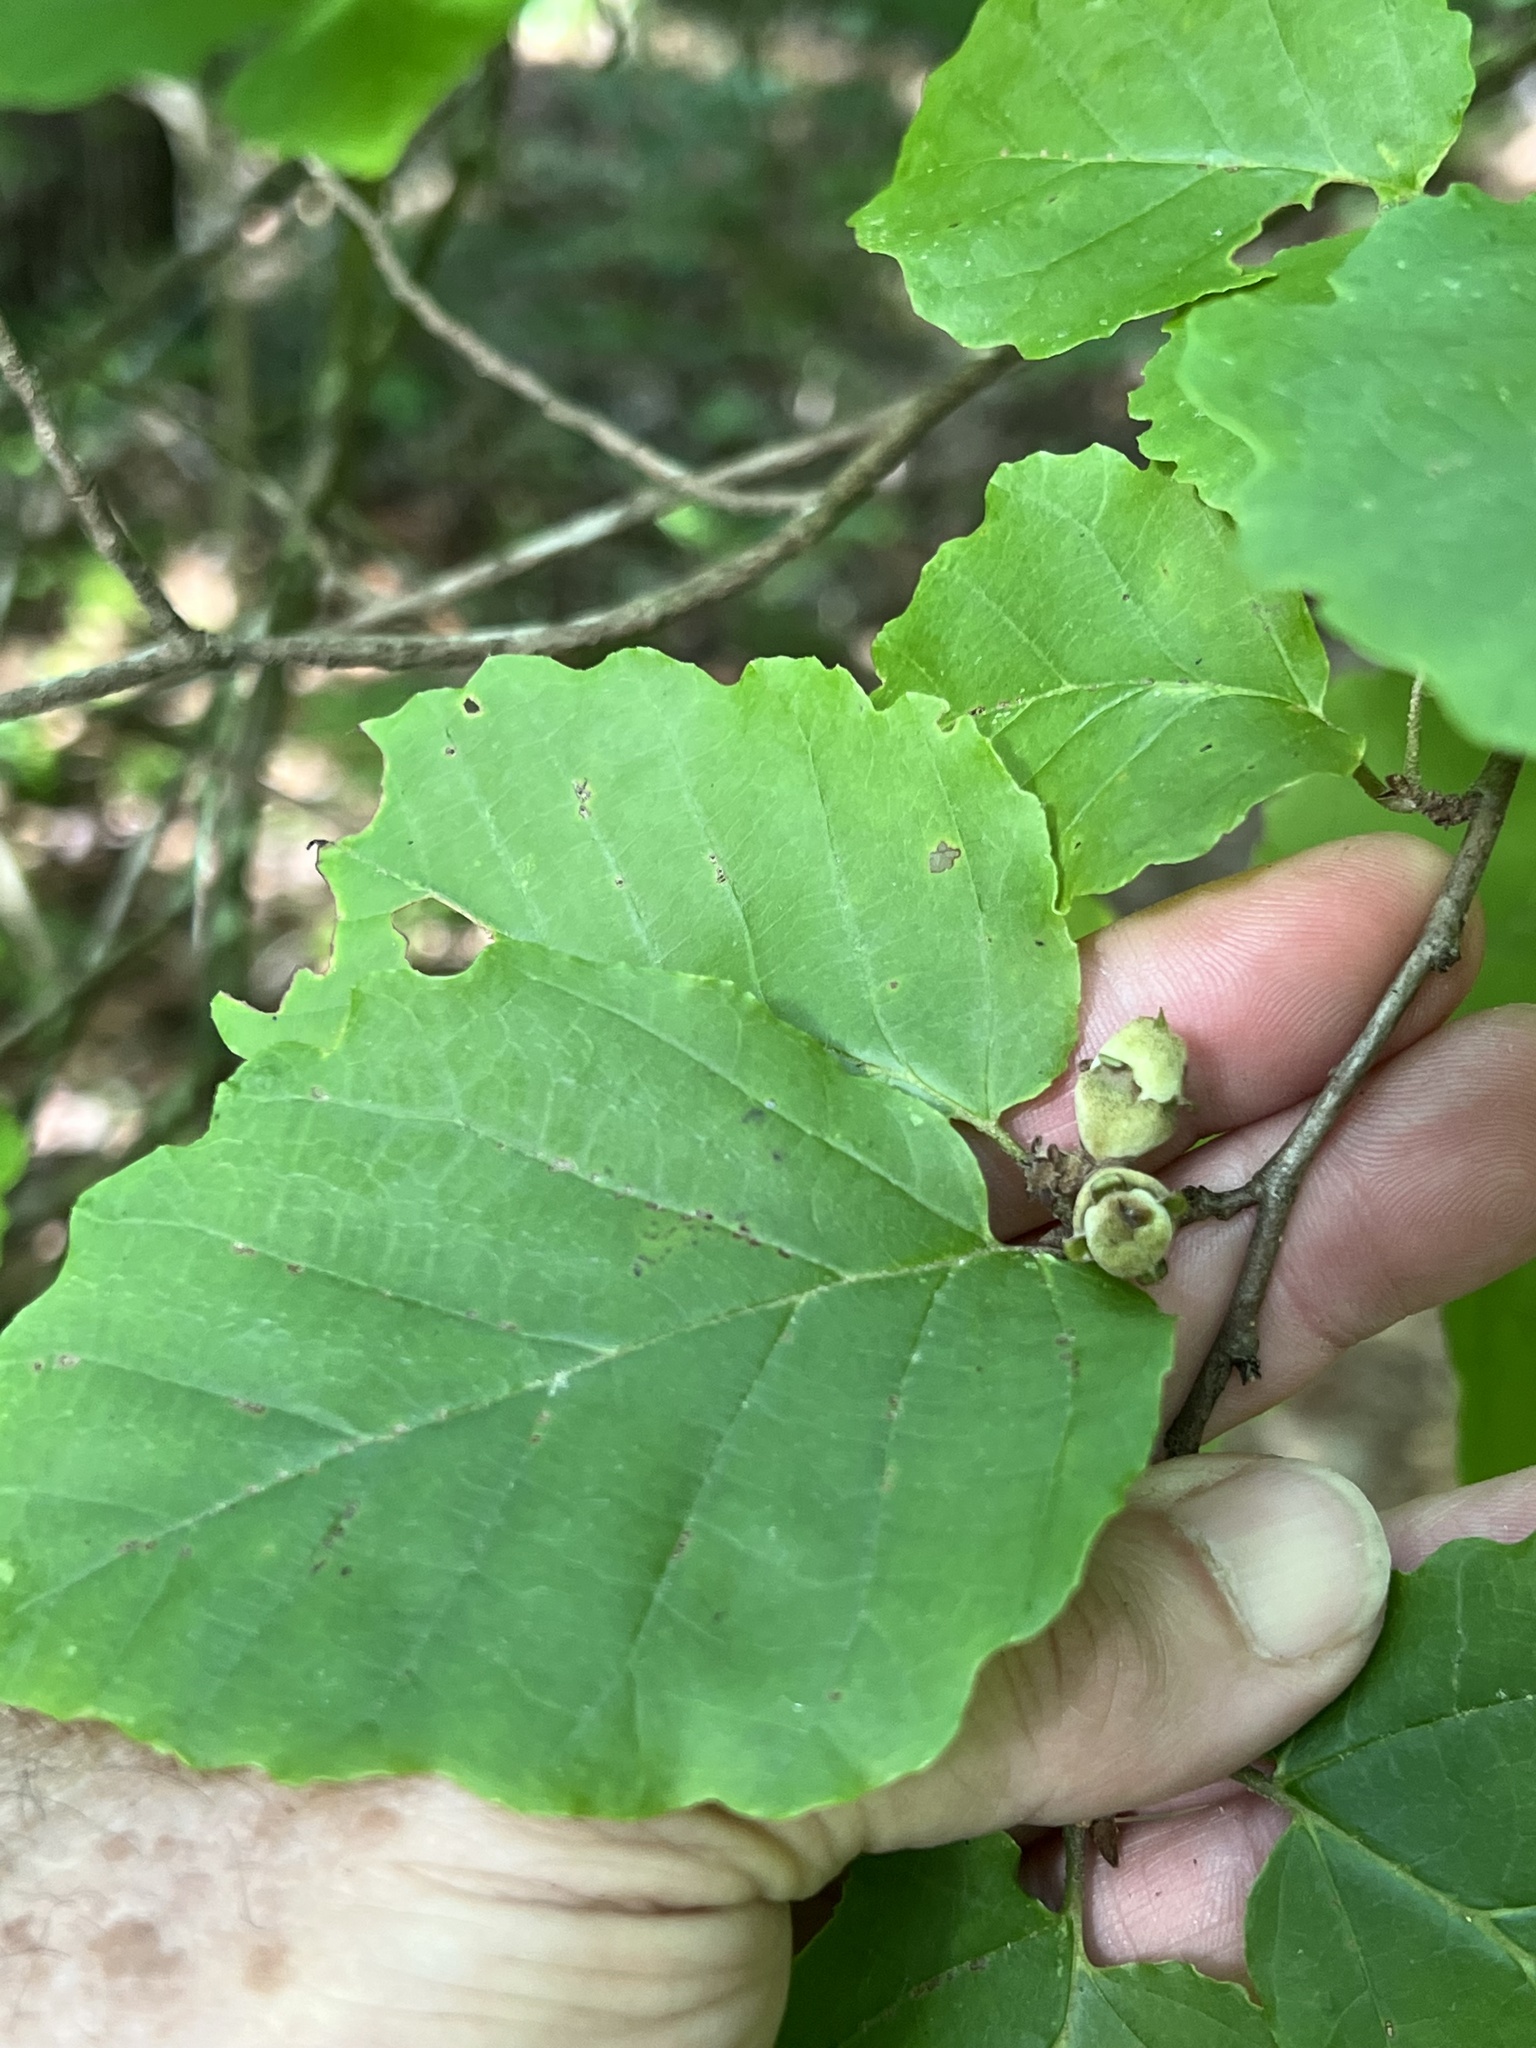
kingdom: Plantae
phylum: Tracheophyta
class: Magnoliopsida
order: Saxifragales
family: Hamamelidaceae
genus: Hamamelis
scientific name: Hamamelis virginiana
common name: Witch-hazel
